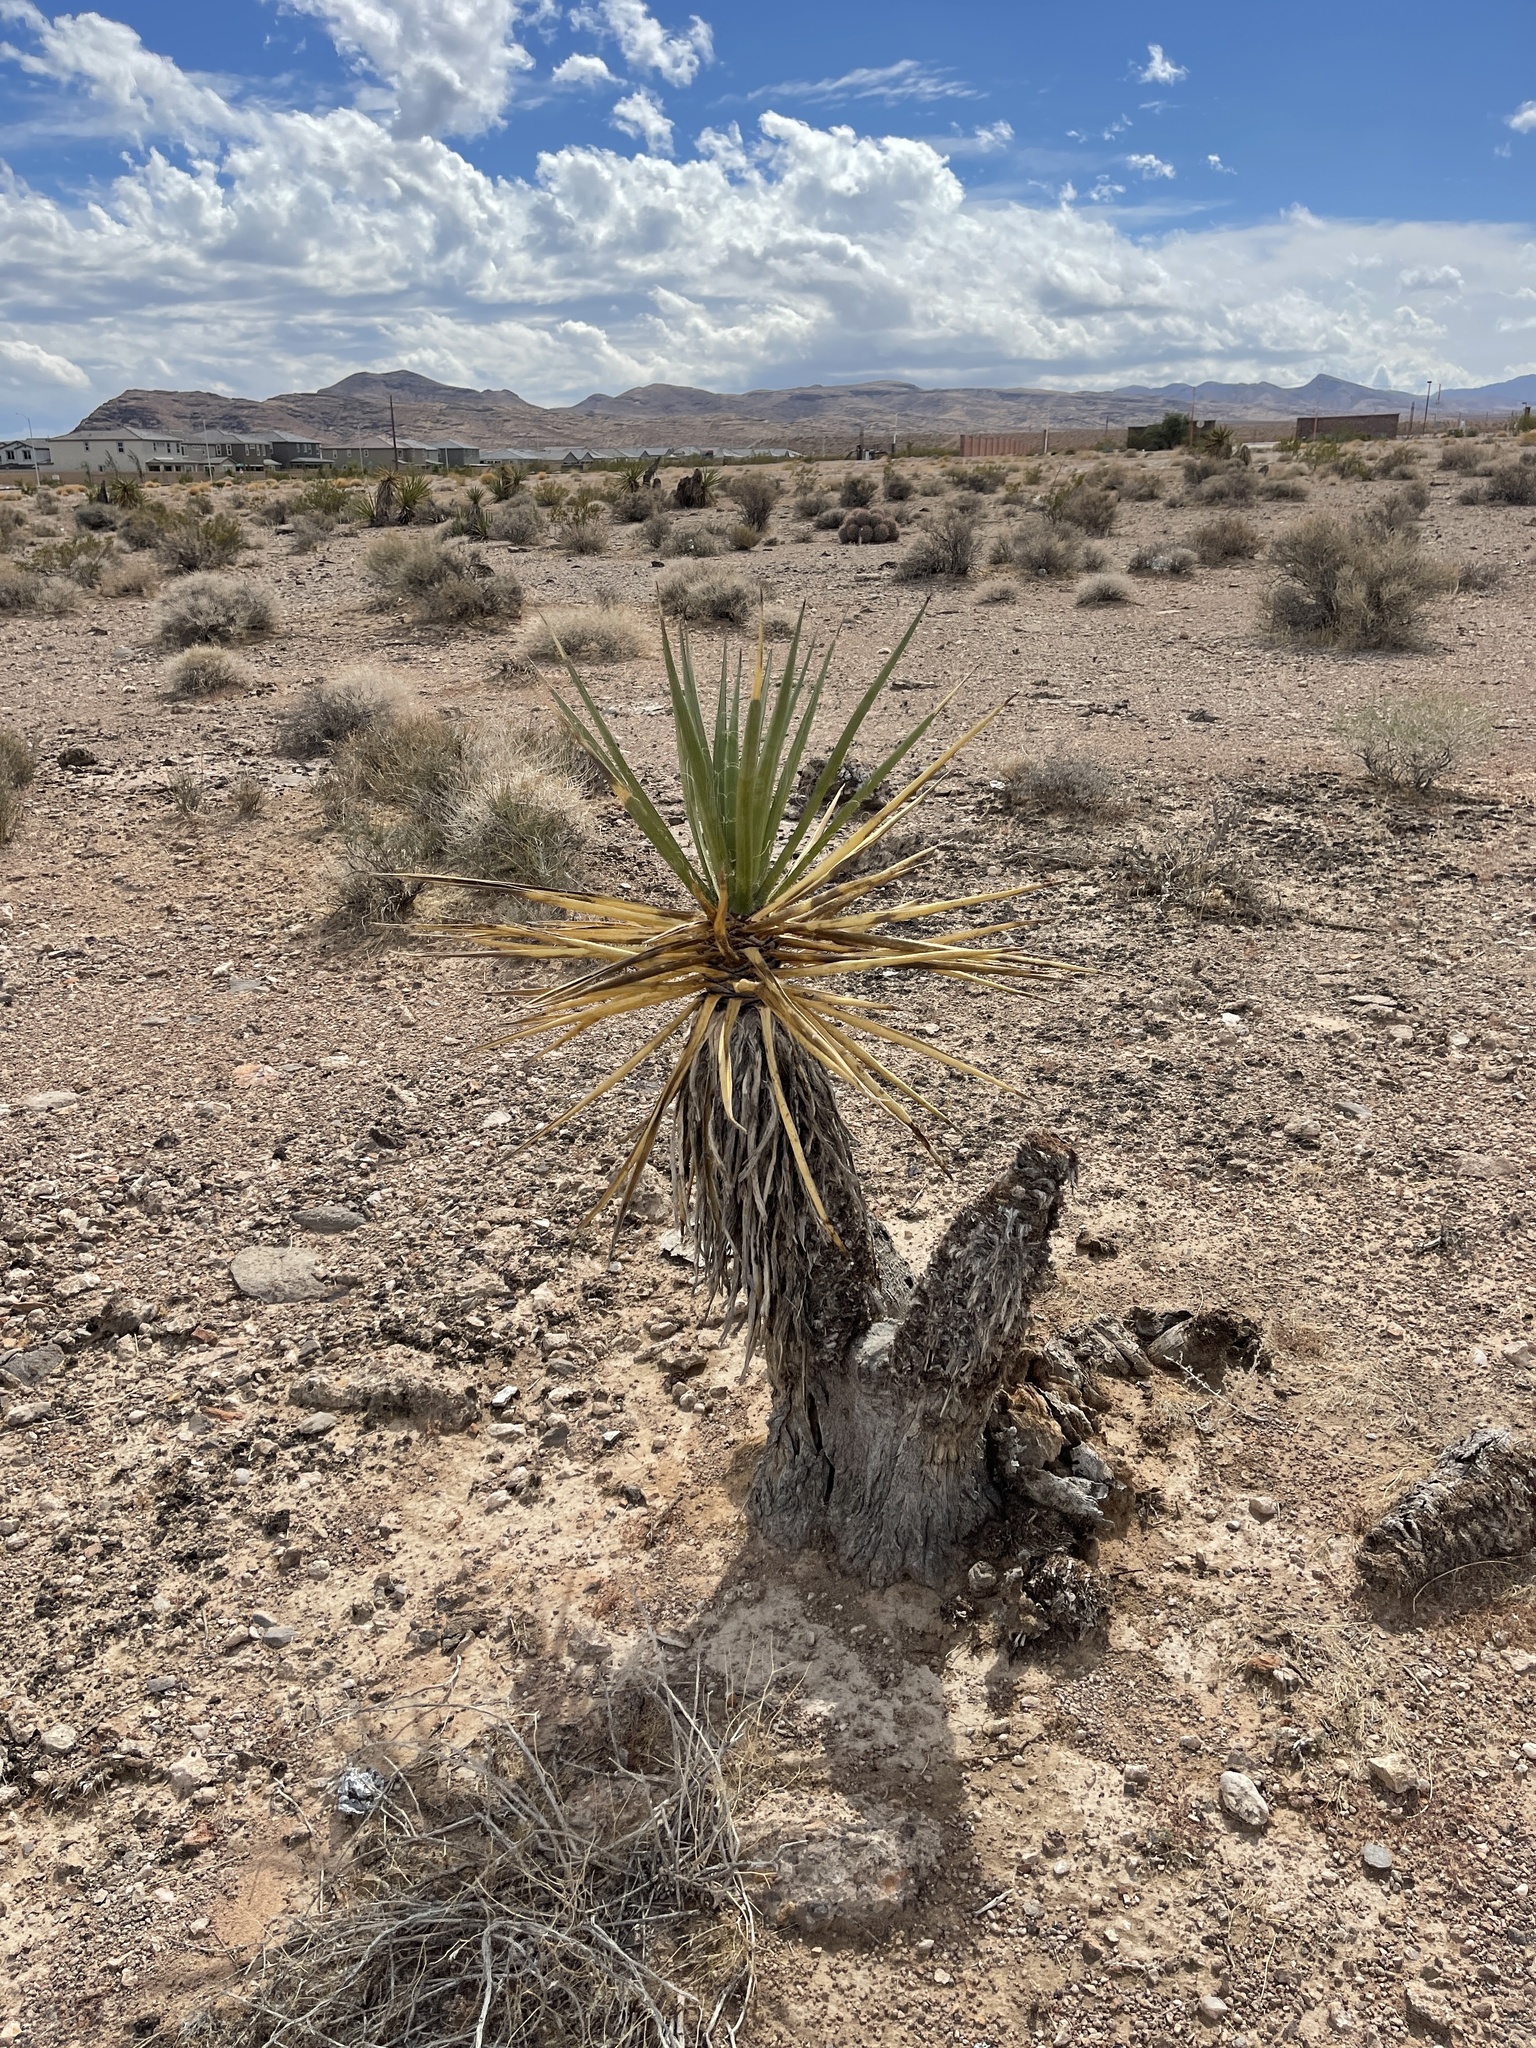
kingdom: Plantae
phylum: Tracheophyta
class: Liliopsida
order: Asparagales
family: Asparagaceae
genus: Yucca
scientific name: Yucca schidigera
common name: Mojave yucca
